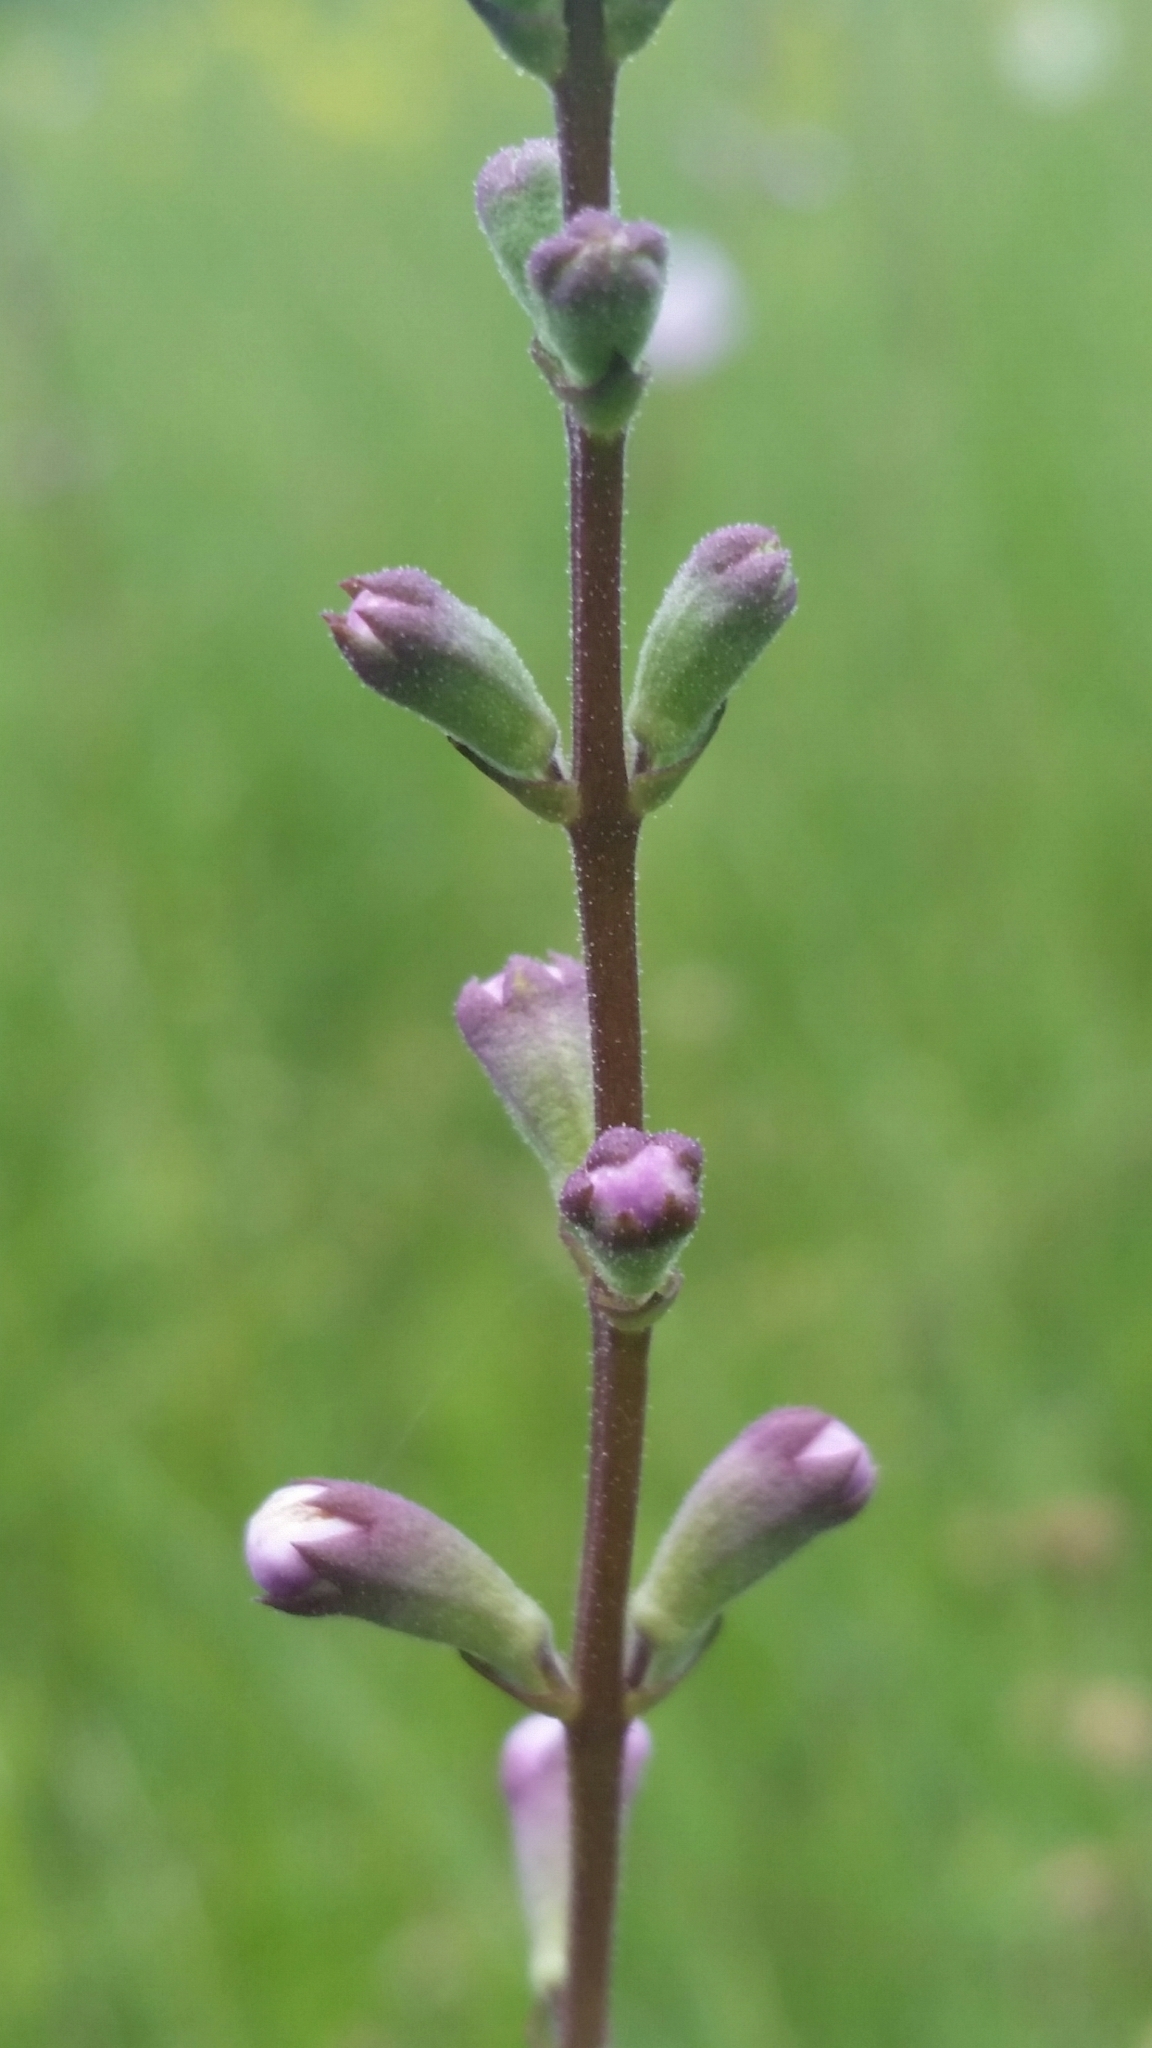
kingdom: Plantae
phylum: Tracheophyta
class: Magnoliopsida
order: Lamiales
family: Lamiaceae
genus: Physostegia
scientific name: Physostegia godfreyi
